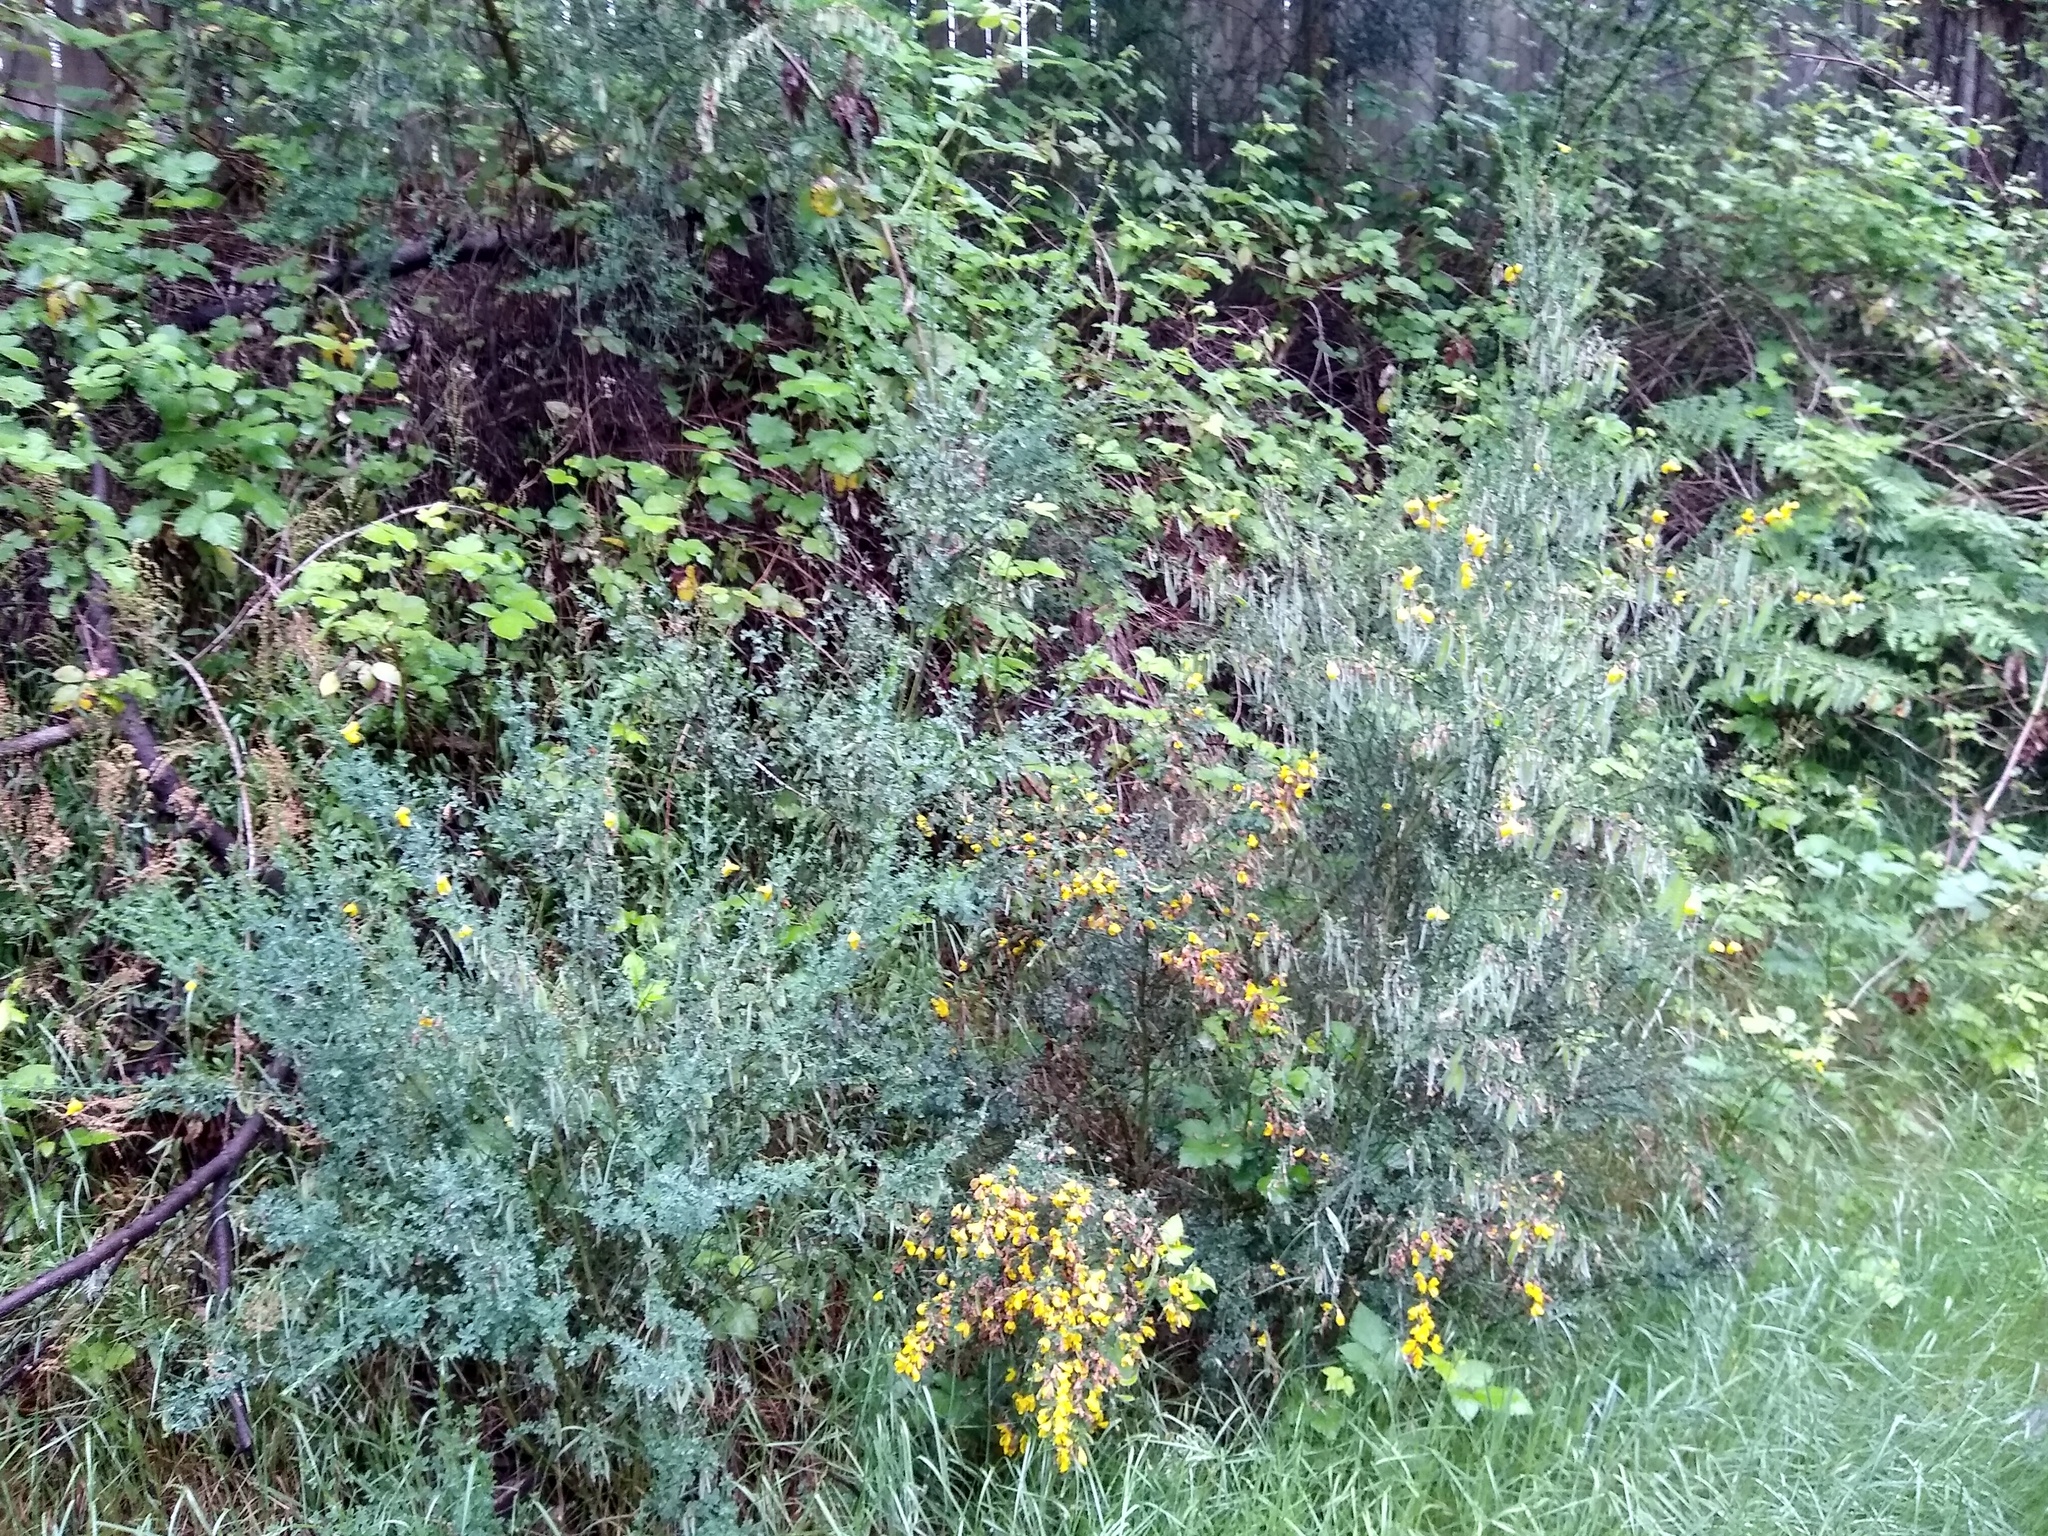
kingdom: Plantae
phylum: Tracheophyta
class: Magnoliopsida
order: Fabales
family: Fabaceae
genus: Cytisus
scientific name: Cytisus scoparius
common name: Scotch broom
